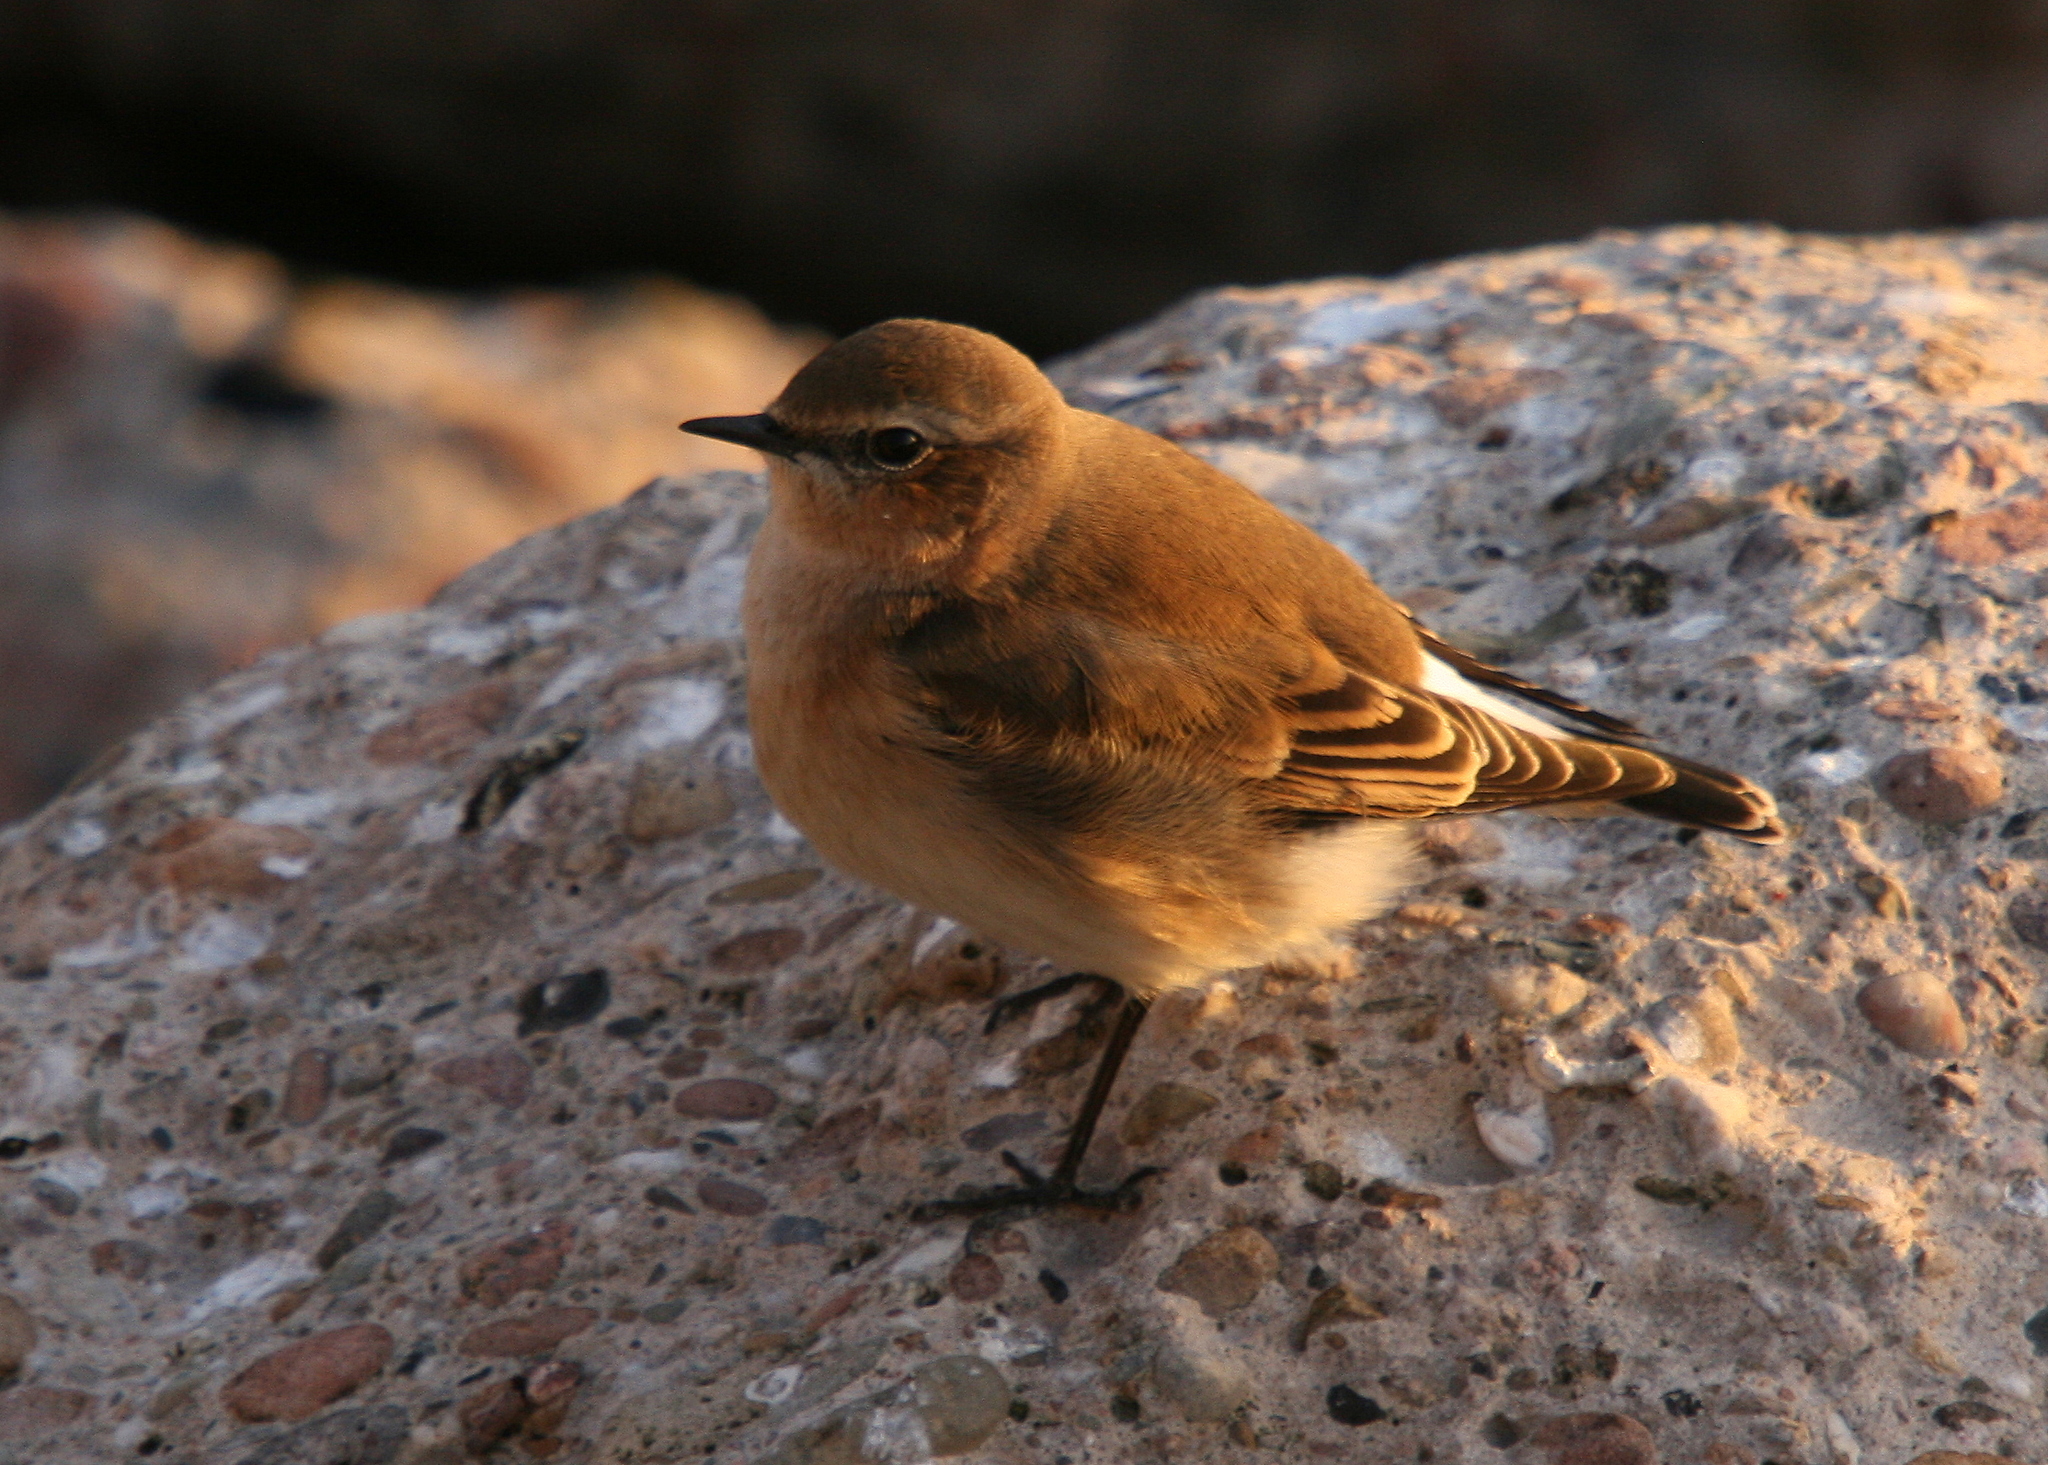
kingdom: Animalia
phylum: Chordata
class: Aves
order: Passeriformes
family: Muscicapidae
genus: Oenanthe
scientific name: Oenanthe oenanthe
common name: Northern wheatear
